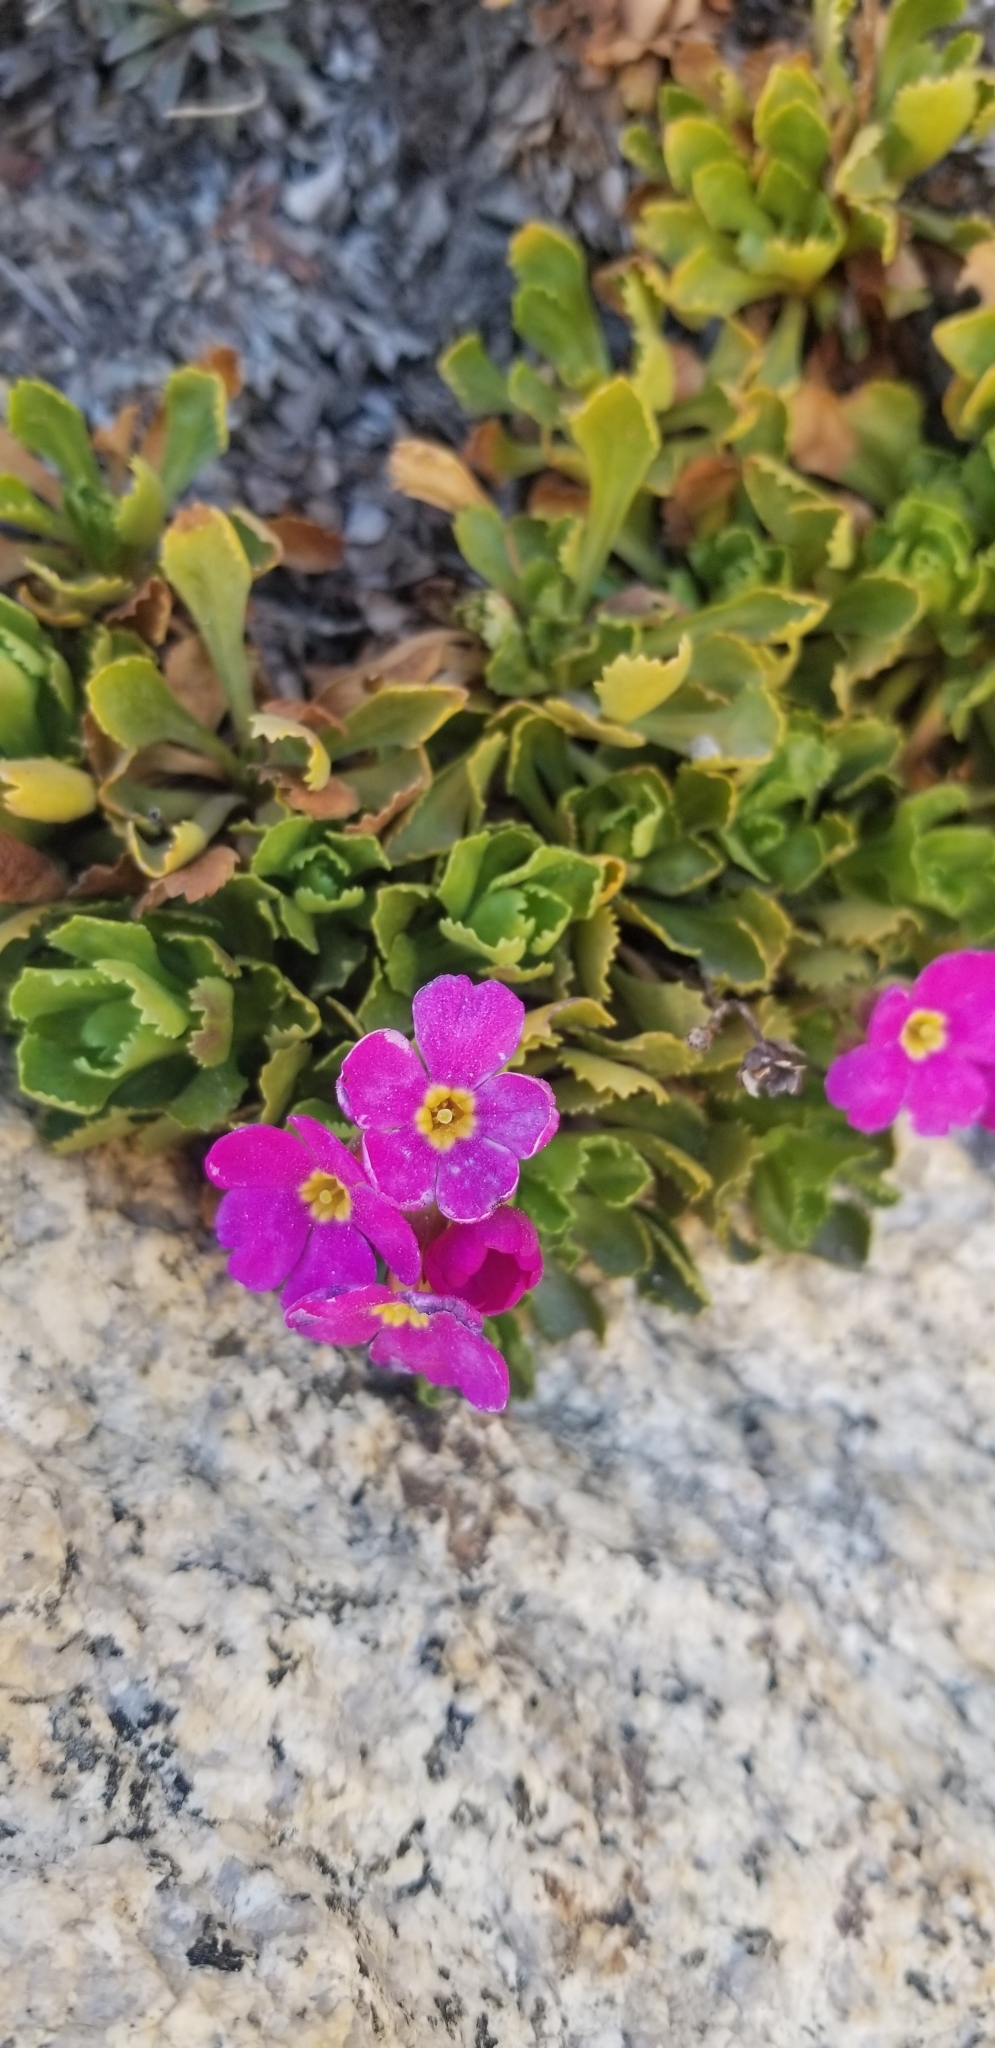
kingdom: Plantae
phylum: Tracheophyta
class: Magnoliopsida
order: Ericales
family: Primulaceae
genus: Primula
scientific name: Primula suffrutescens
